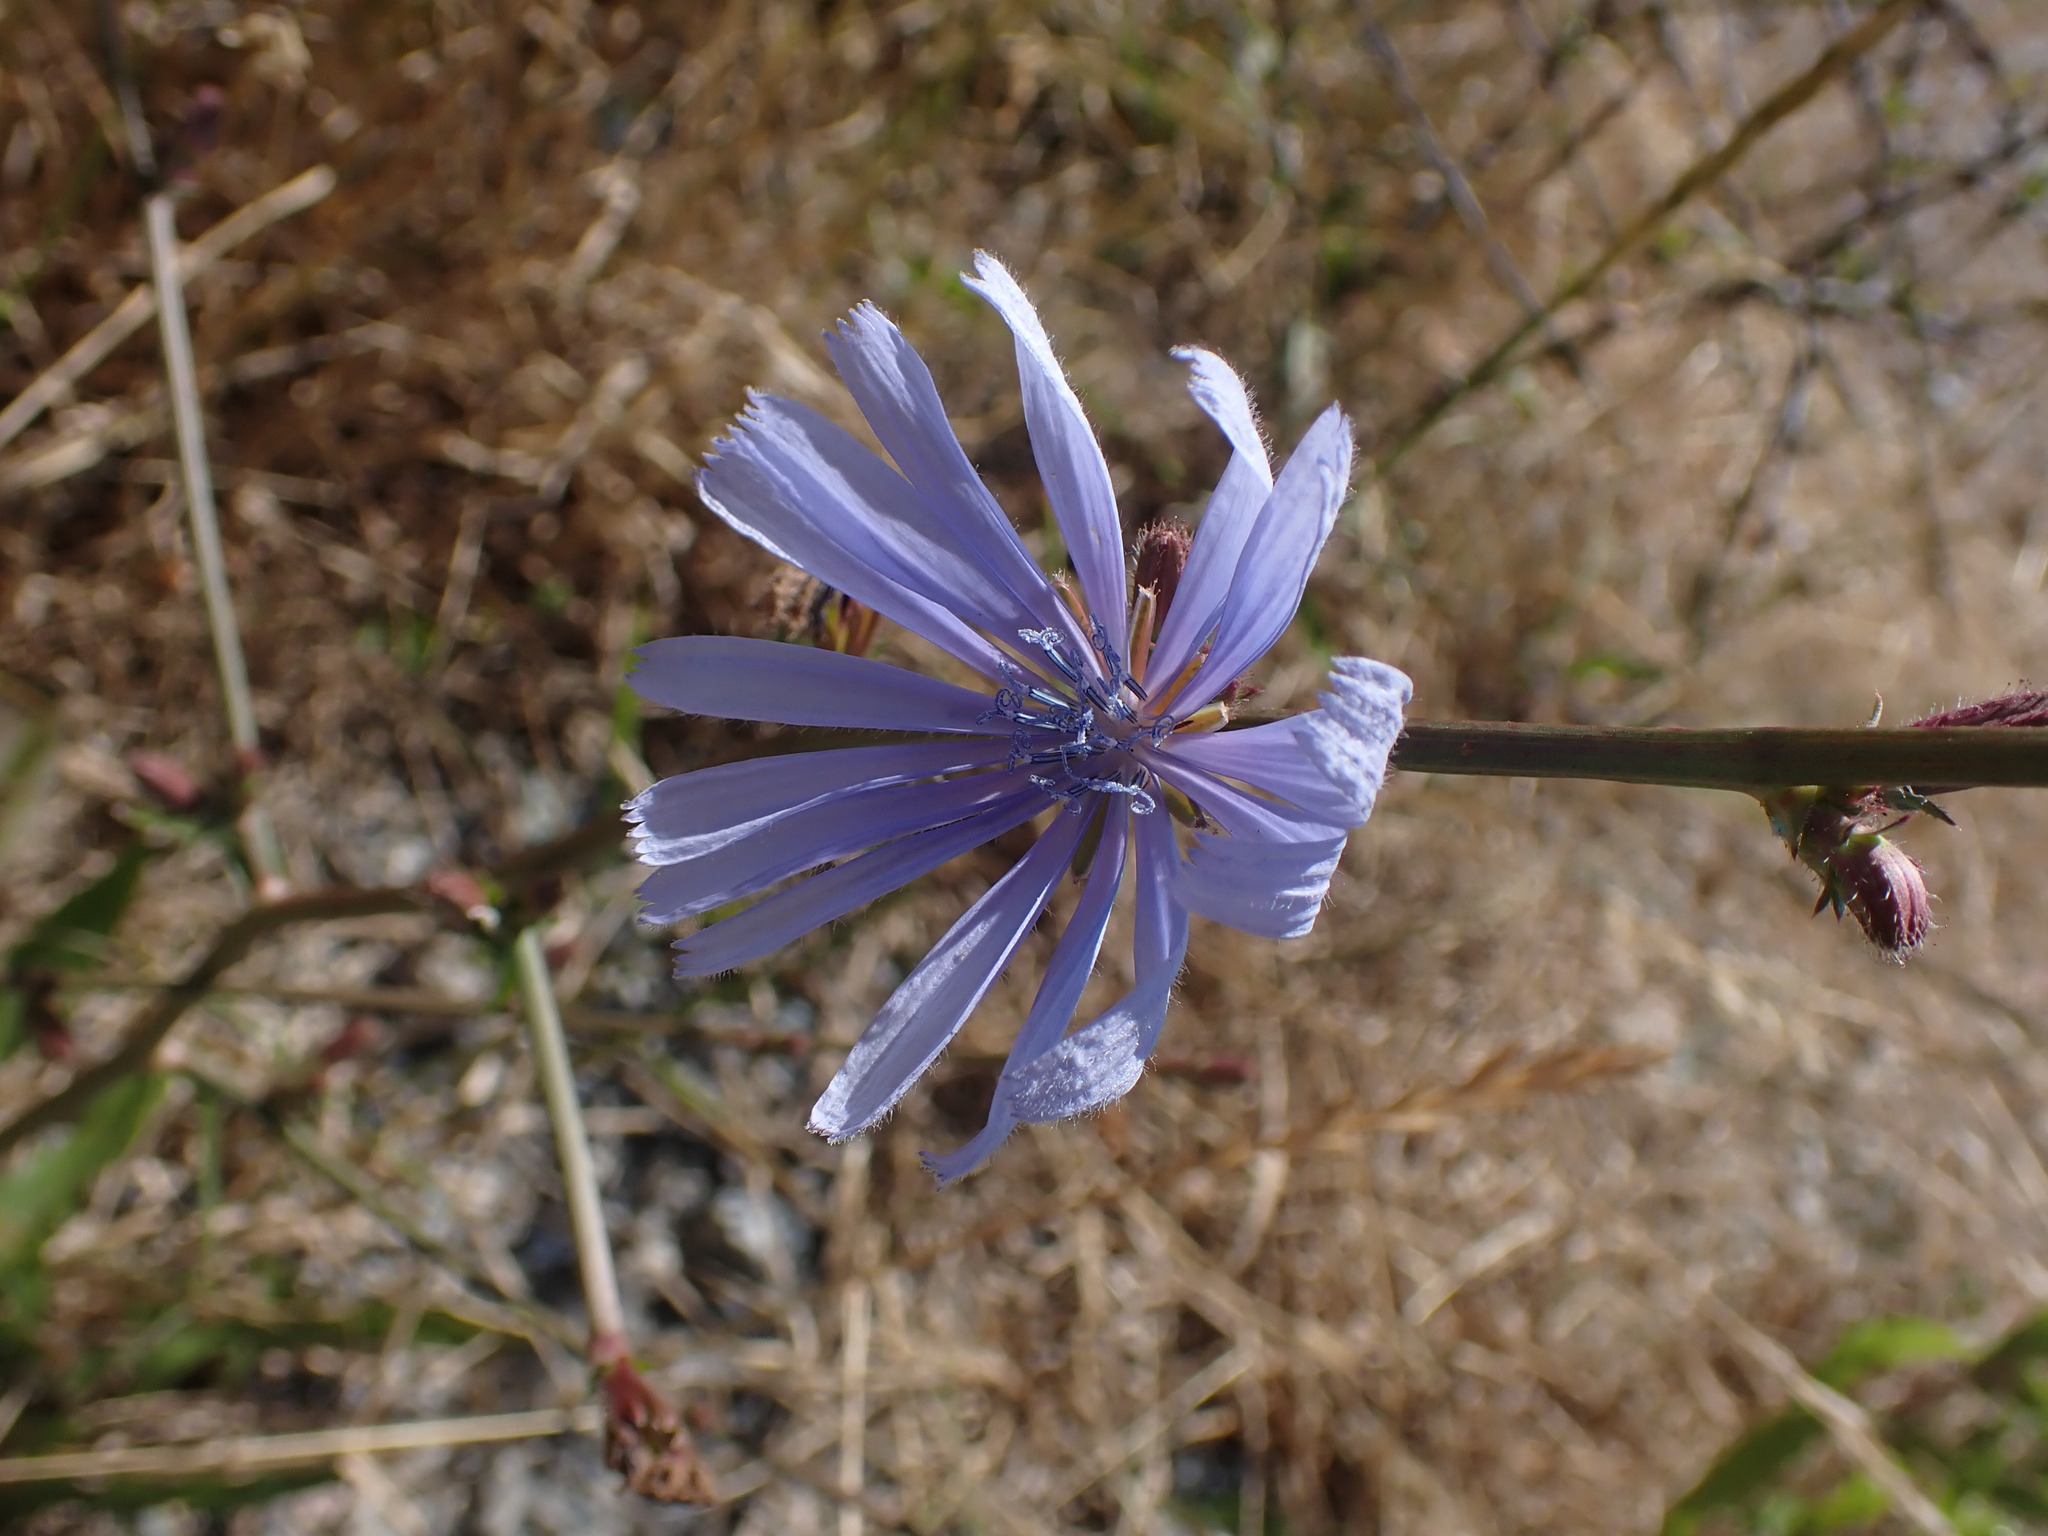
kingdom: Plantae
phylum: Tracheophyta
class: Magnoliopsida
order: Asterales
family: Asteraceae
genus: Cichorium
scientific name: Cichorium intybus
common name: Chicory
